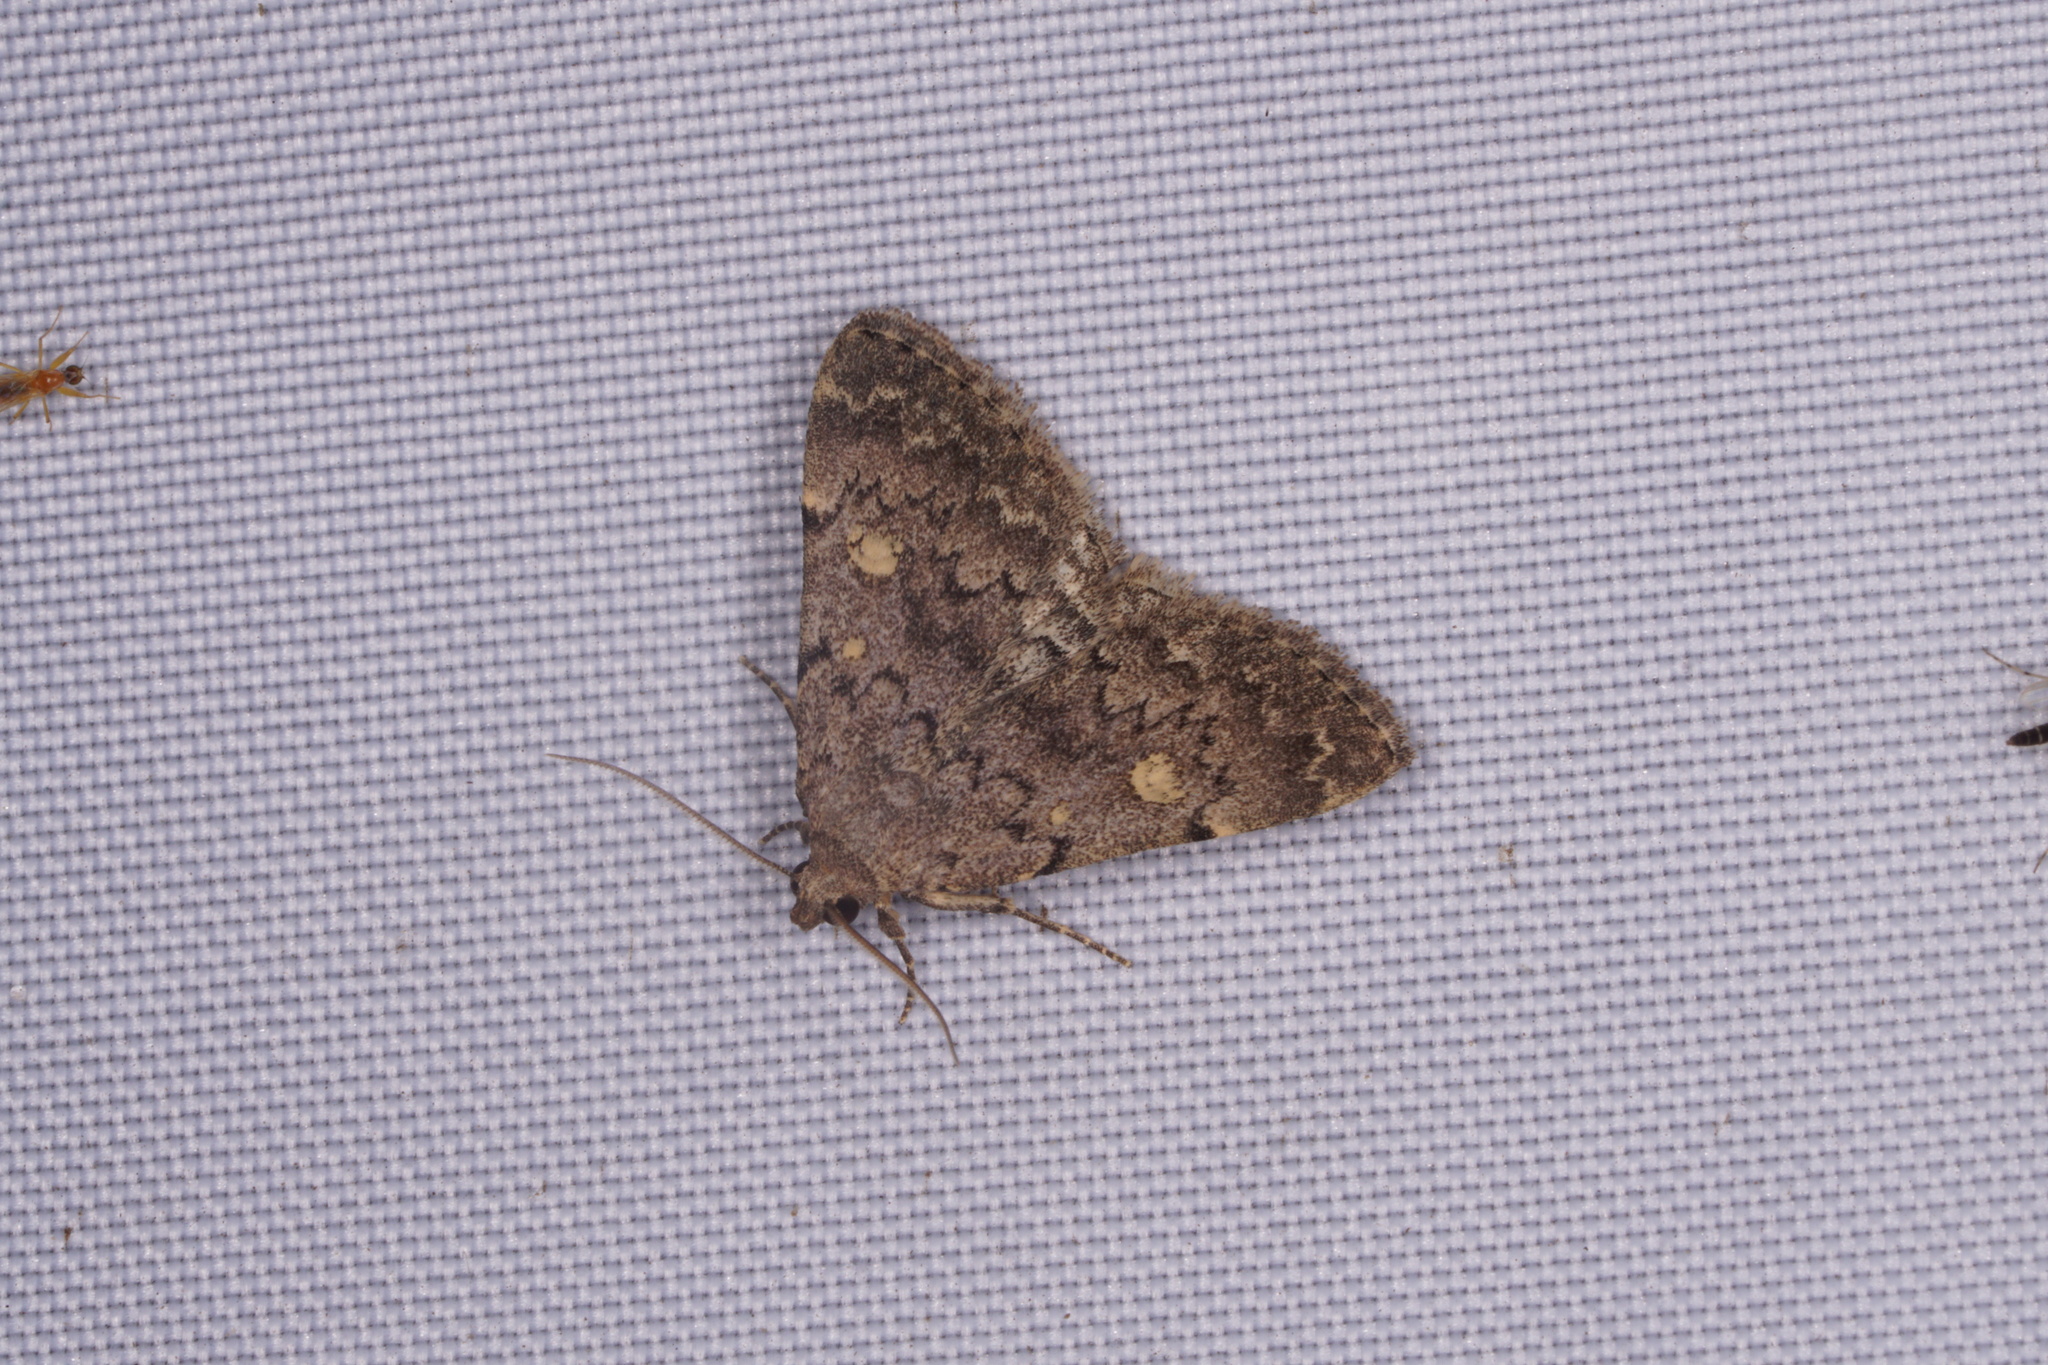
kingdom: Animalia
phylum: Arthropoda
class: Insecta
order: Lepidoptera
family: Erebidae
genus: Idia
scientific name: Idia aemula
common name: Common idia moth
